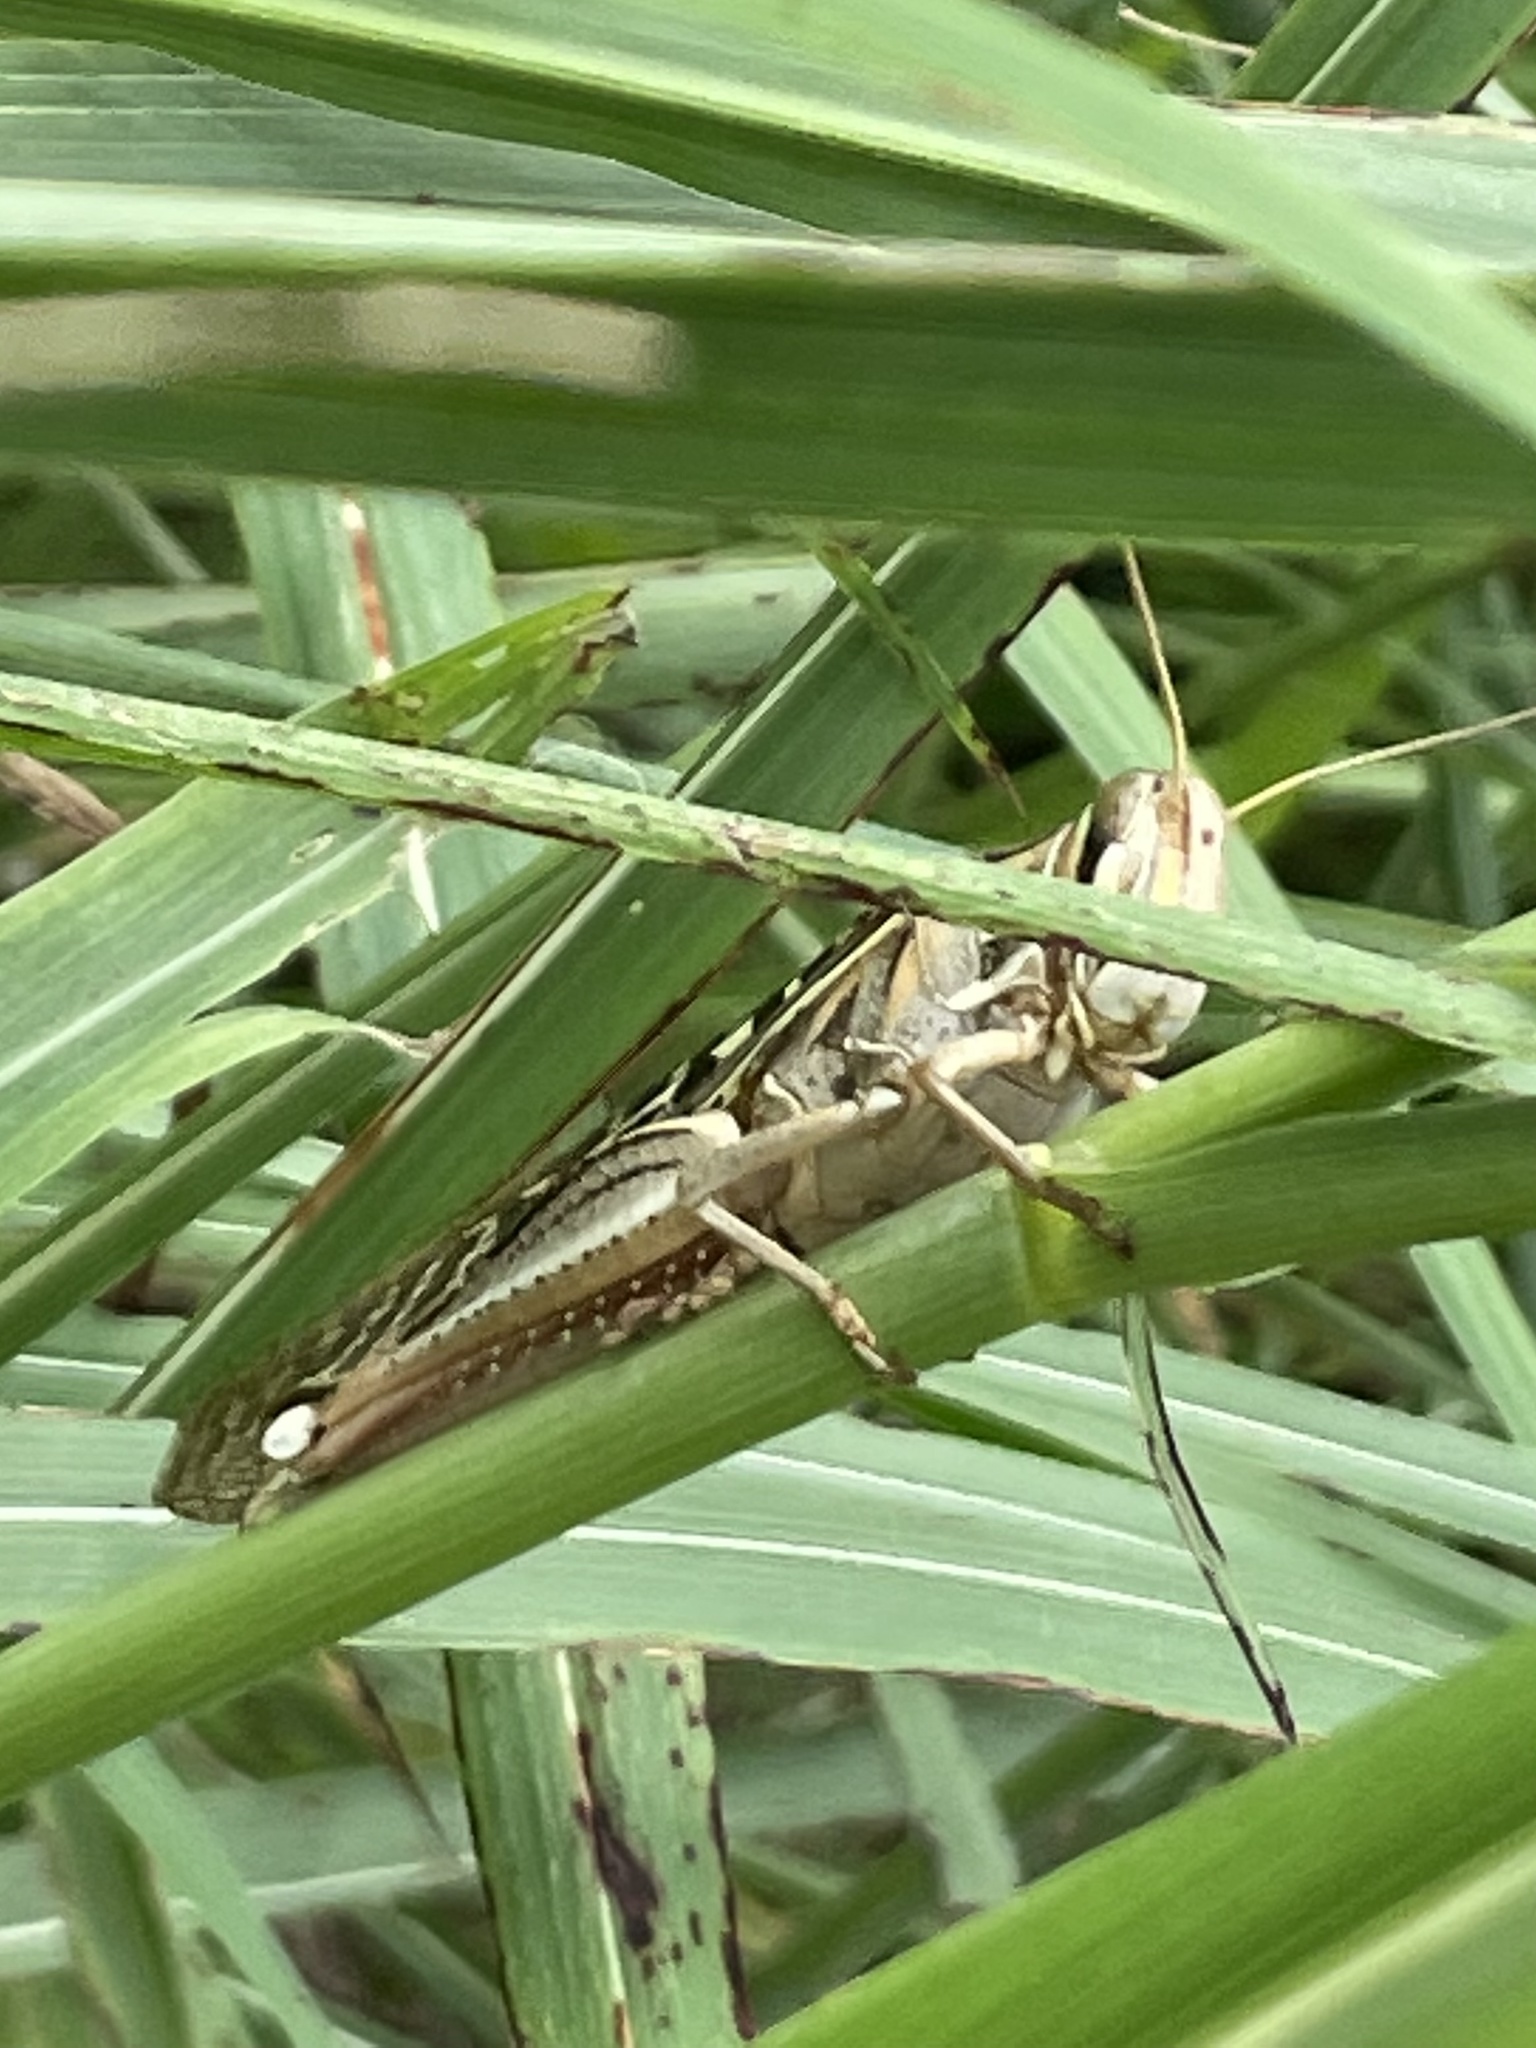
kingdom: Animalia
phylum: Arthropoda
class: Insecta
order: Orthoptera
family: Acrididae
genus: Schistocerca
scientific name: Schistocerca americana
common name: American bird locust
